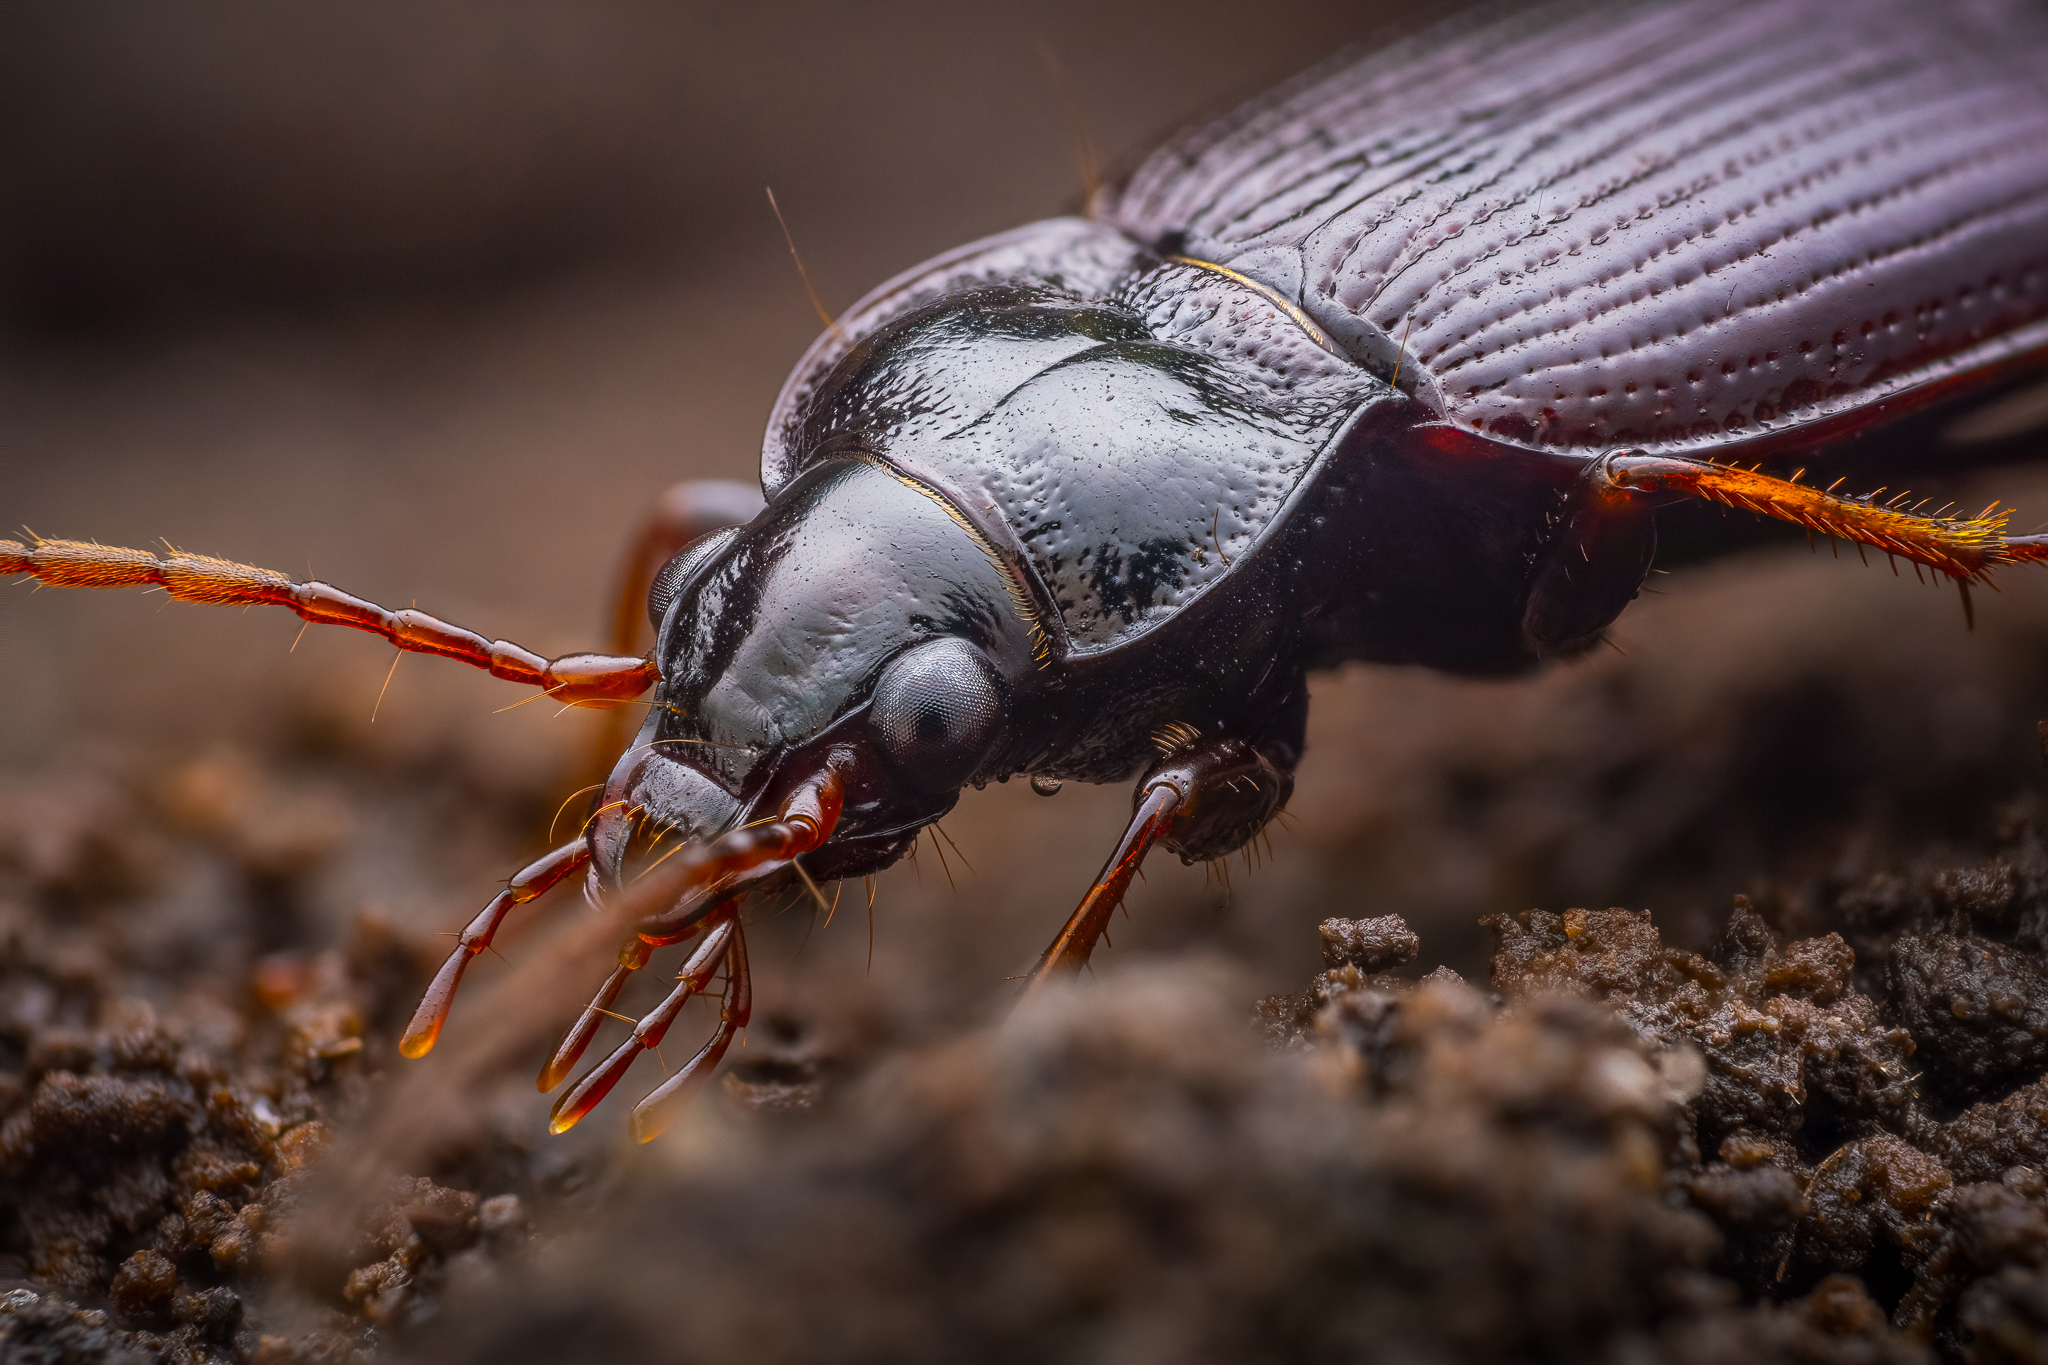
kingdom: Animalia
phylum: Arthropoda
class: Insecta
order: Coleoptera
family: Carabidae
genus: Nebria
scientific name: Nebria brevicollis
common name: Short-necked gazelle beetle
